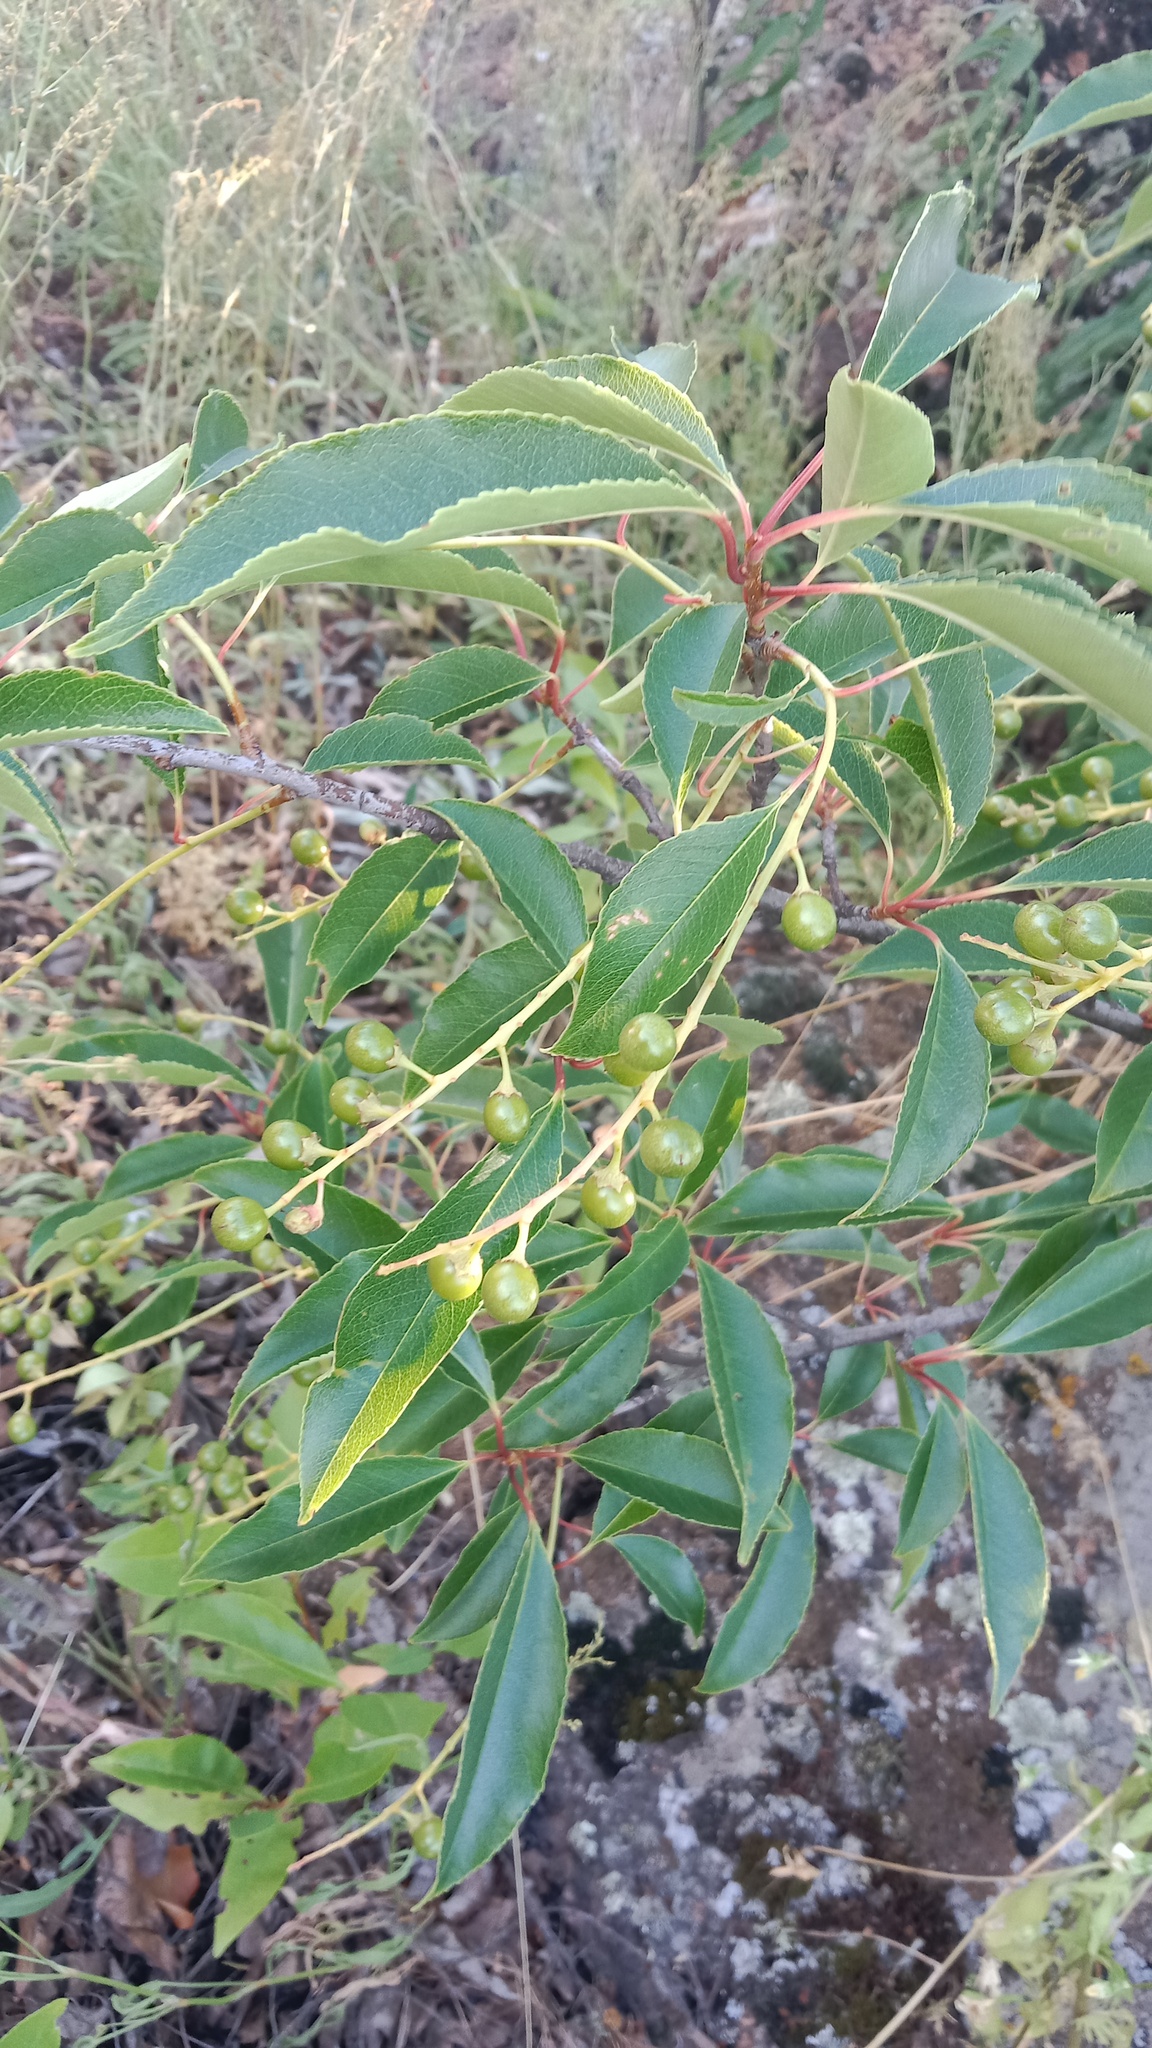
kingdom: Plantae
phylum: Tracheophyta
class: Magnoliopsida
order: Rosales
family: Rosaceae
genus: Prunus
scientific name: Prunus serotina
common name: Black cherry
